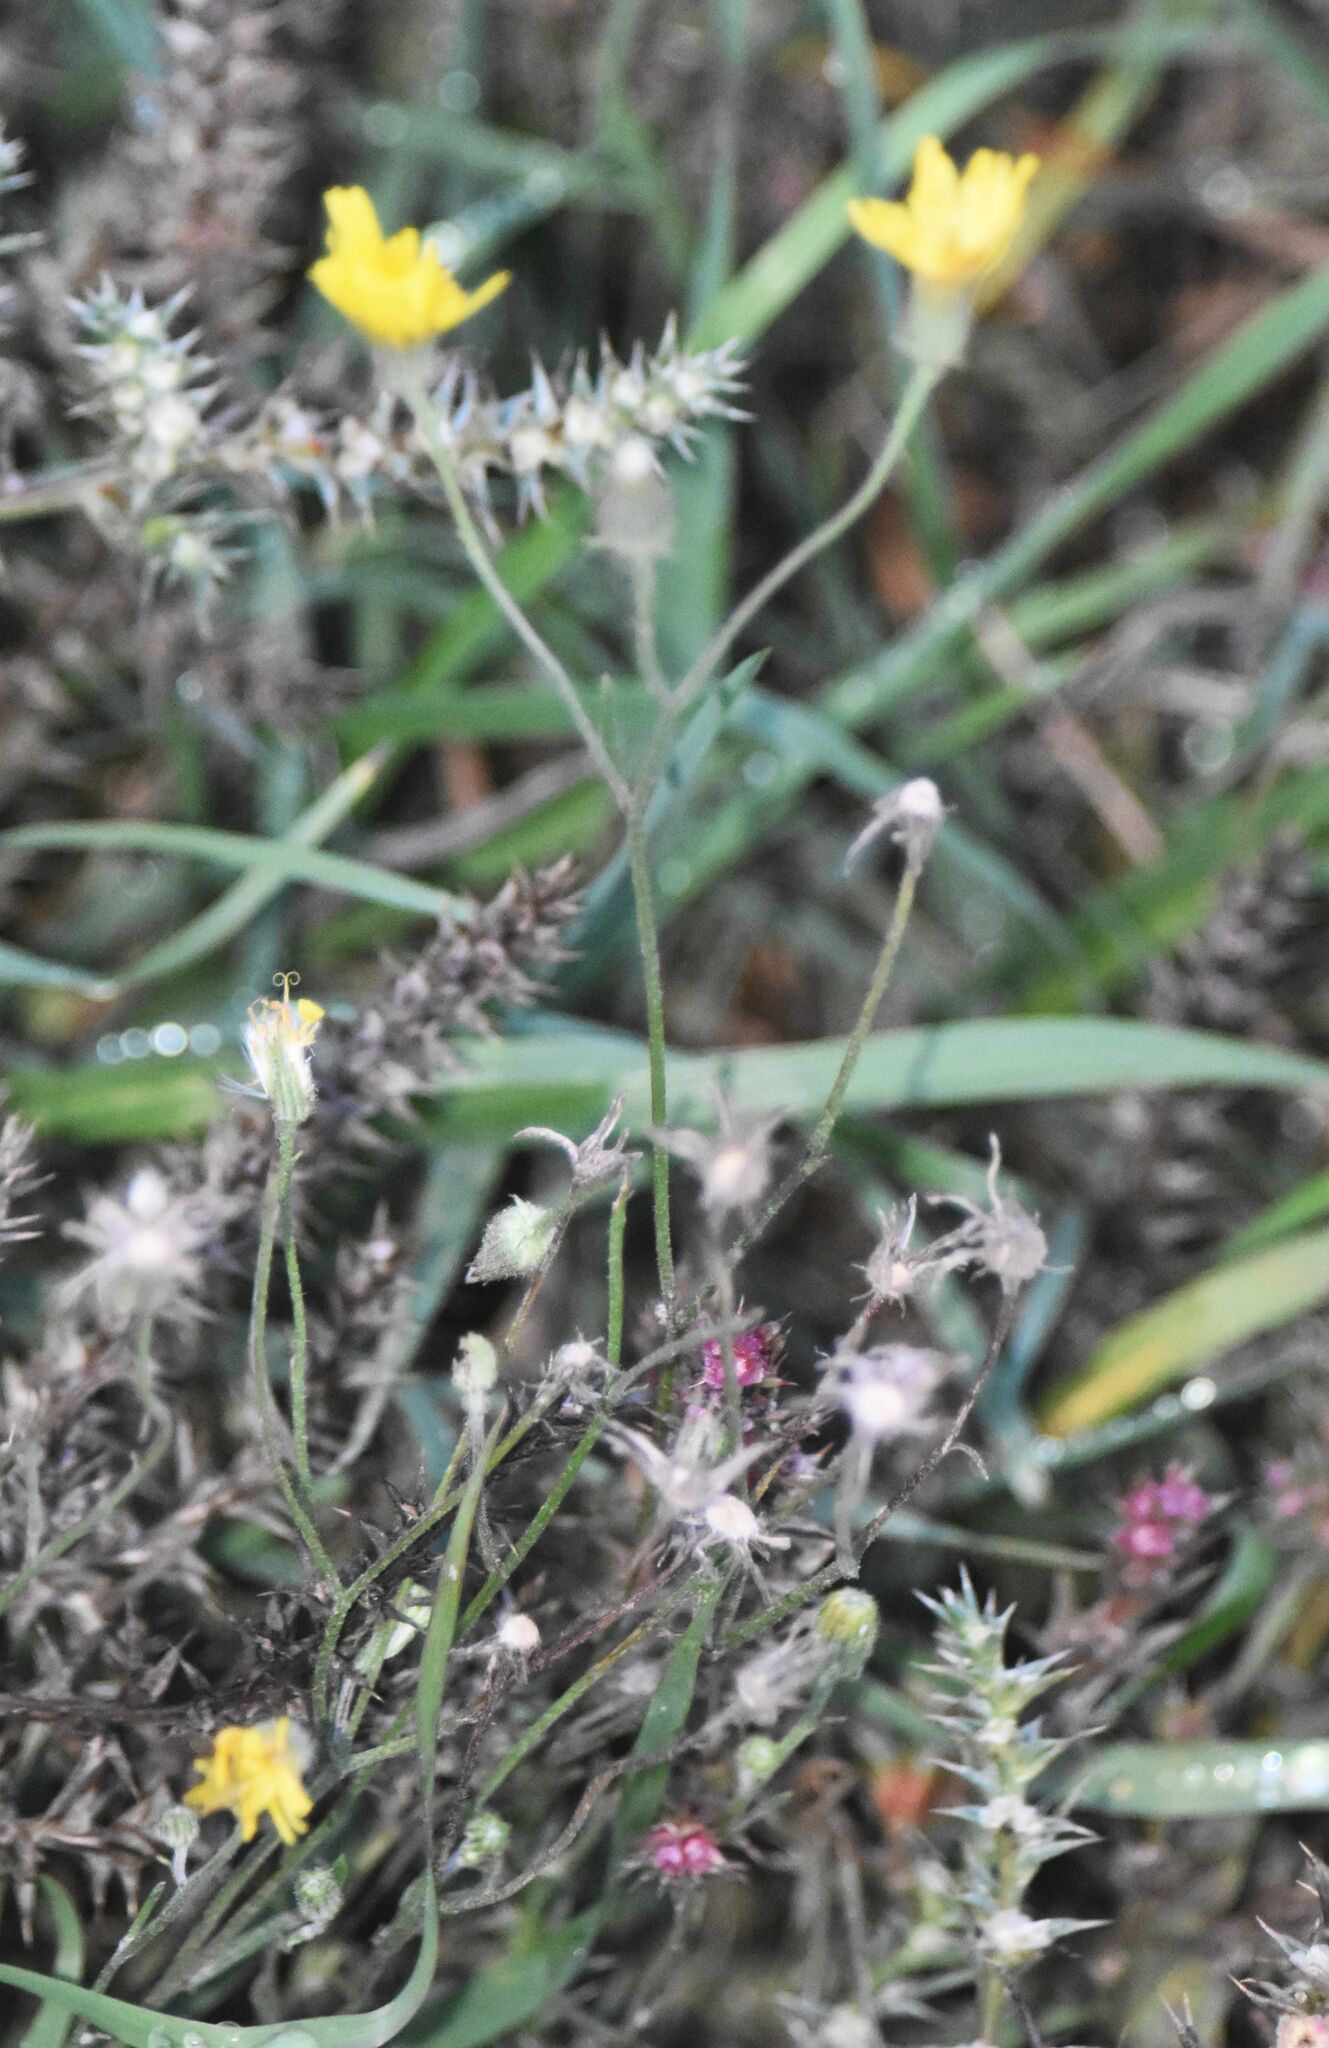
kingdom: Plantae
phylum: Tracheophyta
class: Magnoliopsida
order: Asterales
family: Asteraceae
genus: Crepis
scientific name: Crepis tectorum
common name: Narrow-leaved hawk's-beard
